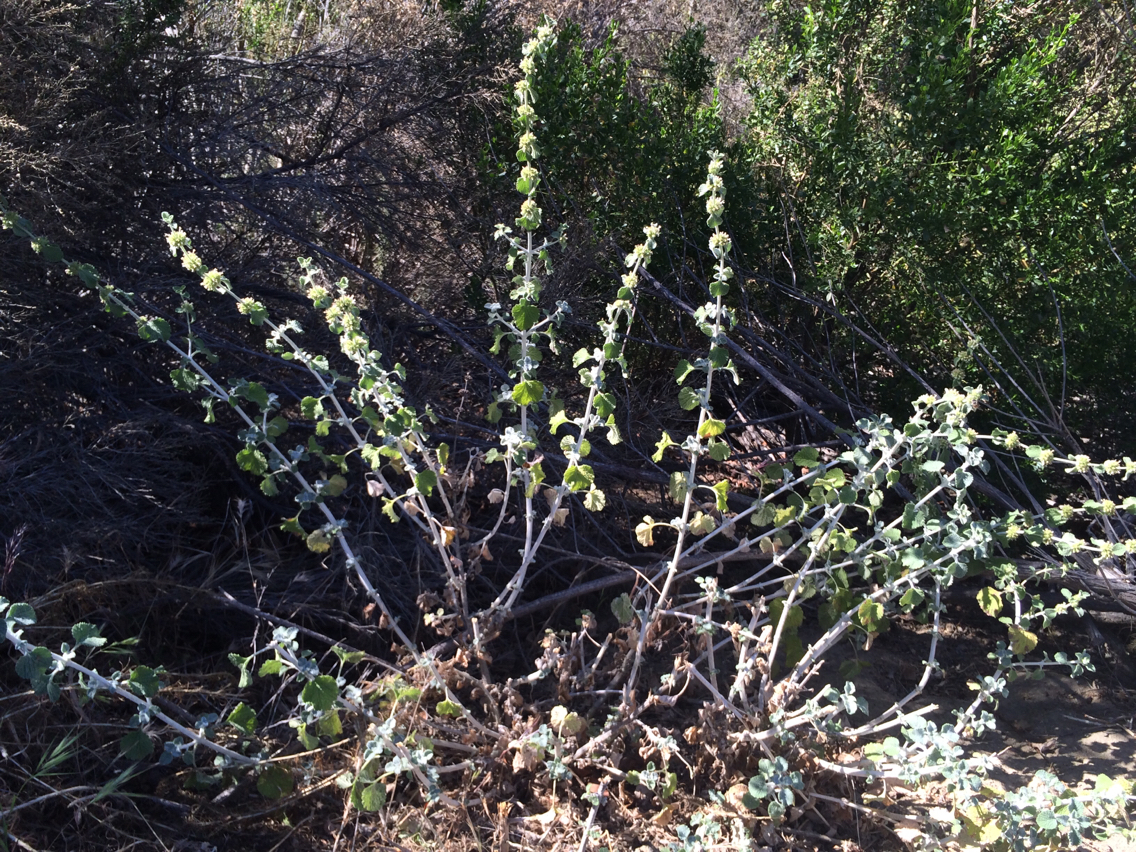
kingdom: Plantae
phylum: Tracheophyta
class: Magnoliopsida
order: Lamiales
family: Lamiaceae
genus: Marrubium
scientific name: Marrubium vulgare
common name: Horehound
